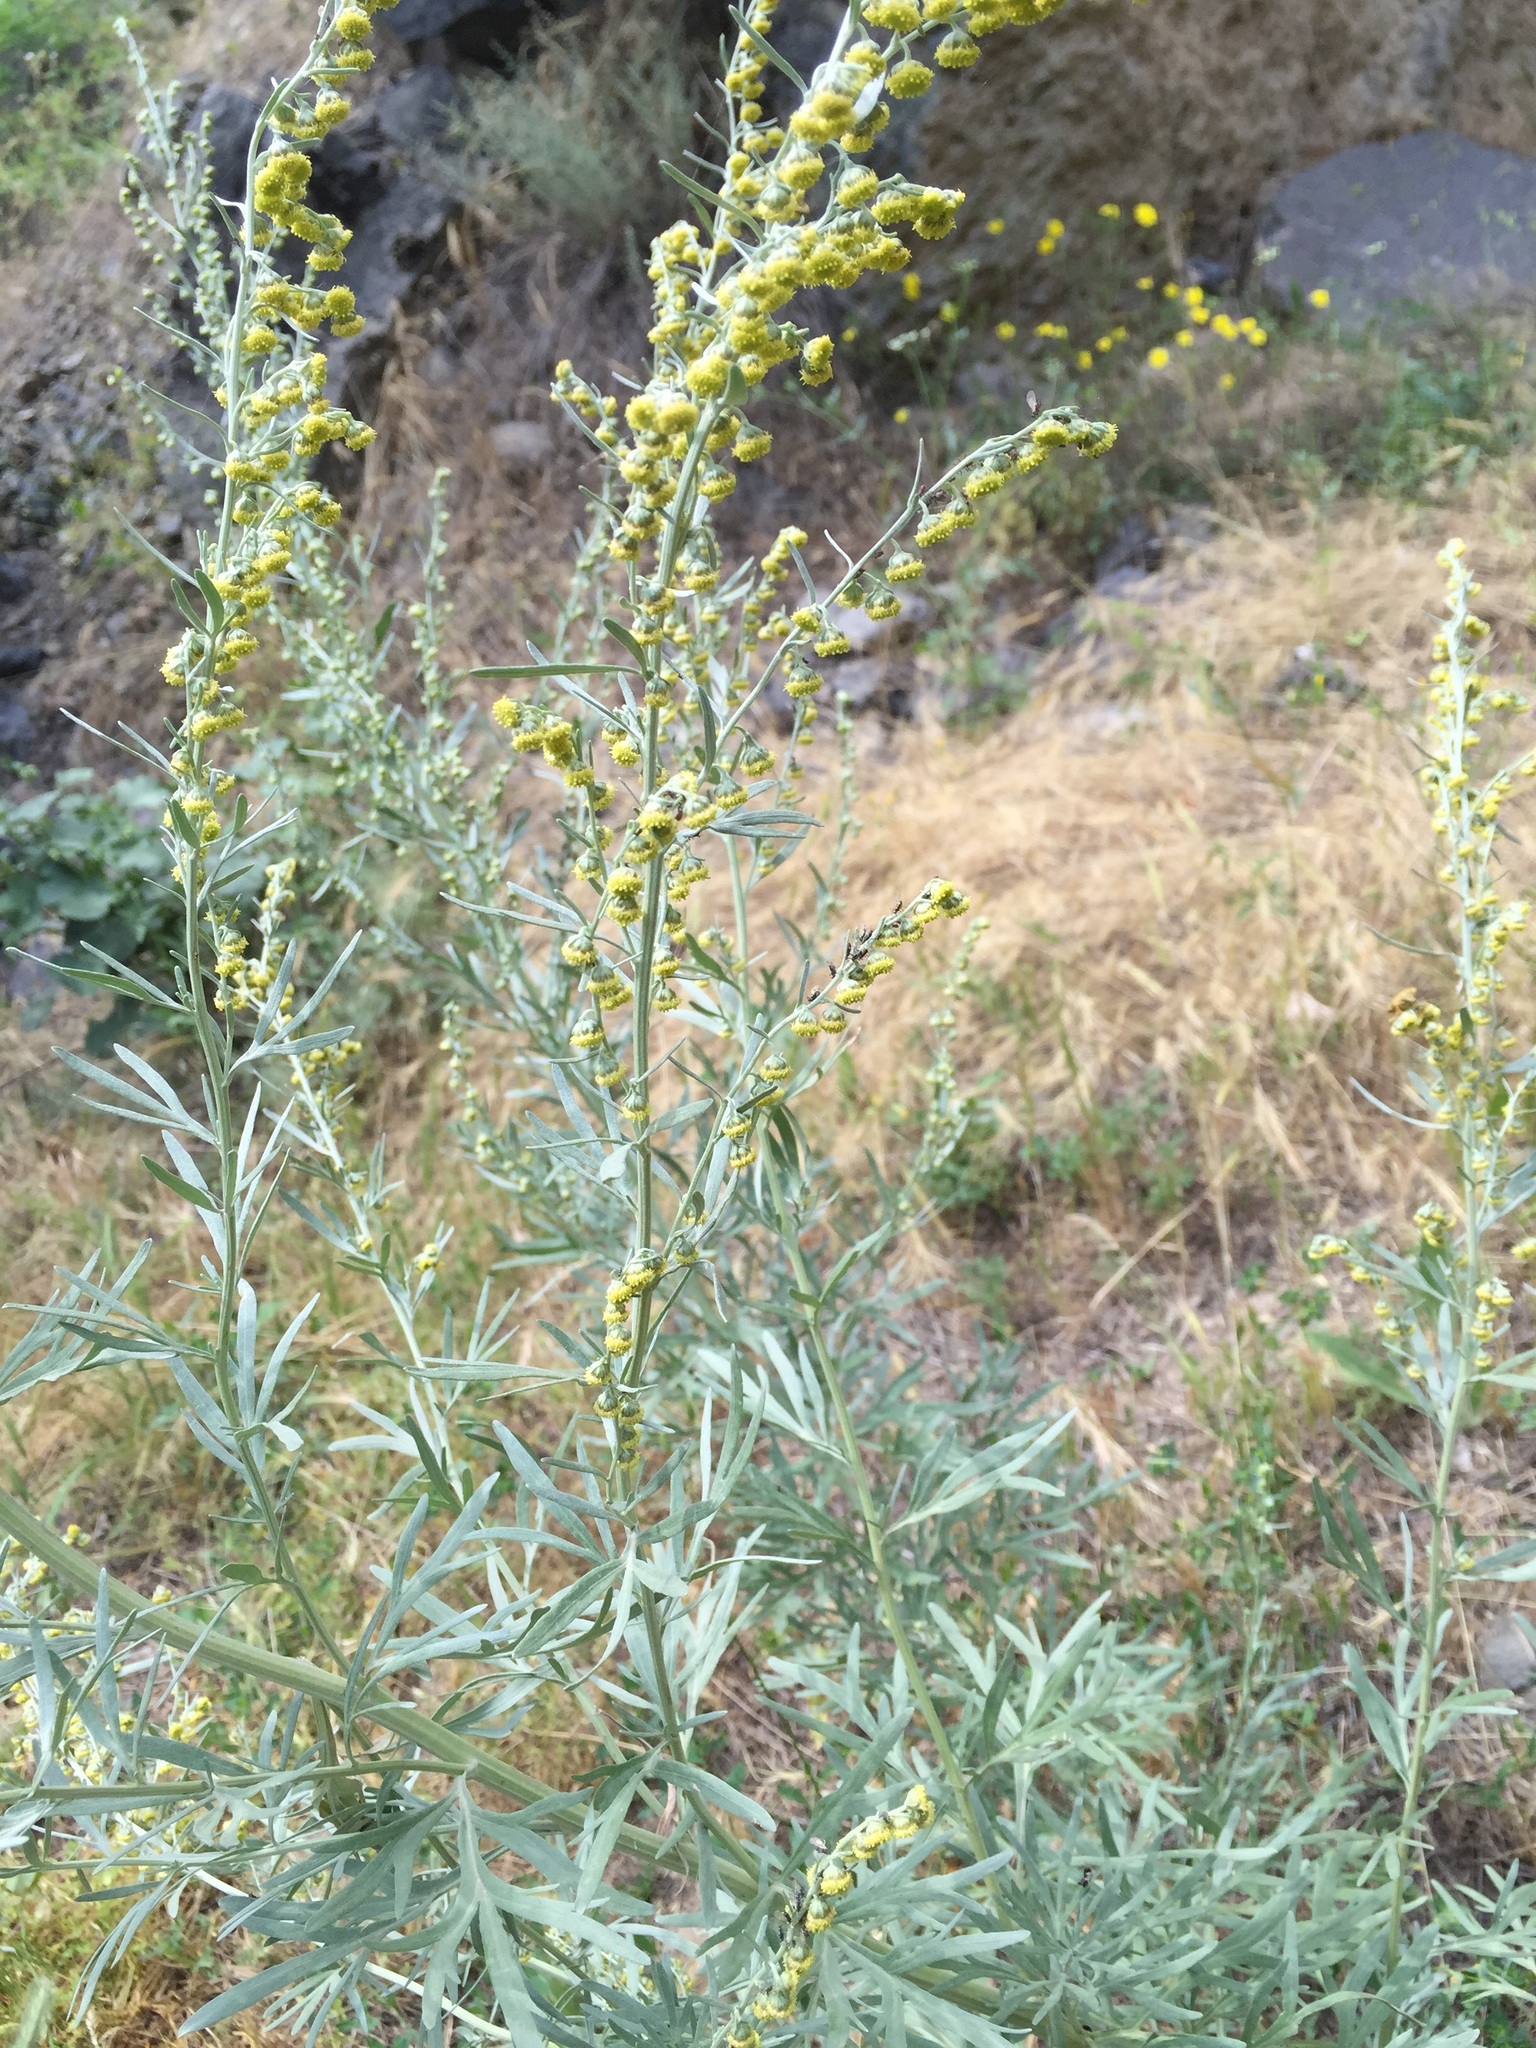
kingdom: Plantae
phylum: Tracheophyta
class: Magnoliopsida
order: Asterales
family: Asteraceae
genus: Artemisia
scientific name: Artemisia campestris
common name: Field wormwood
